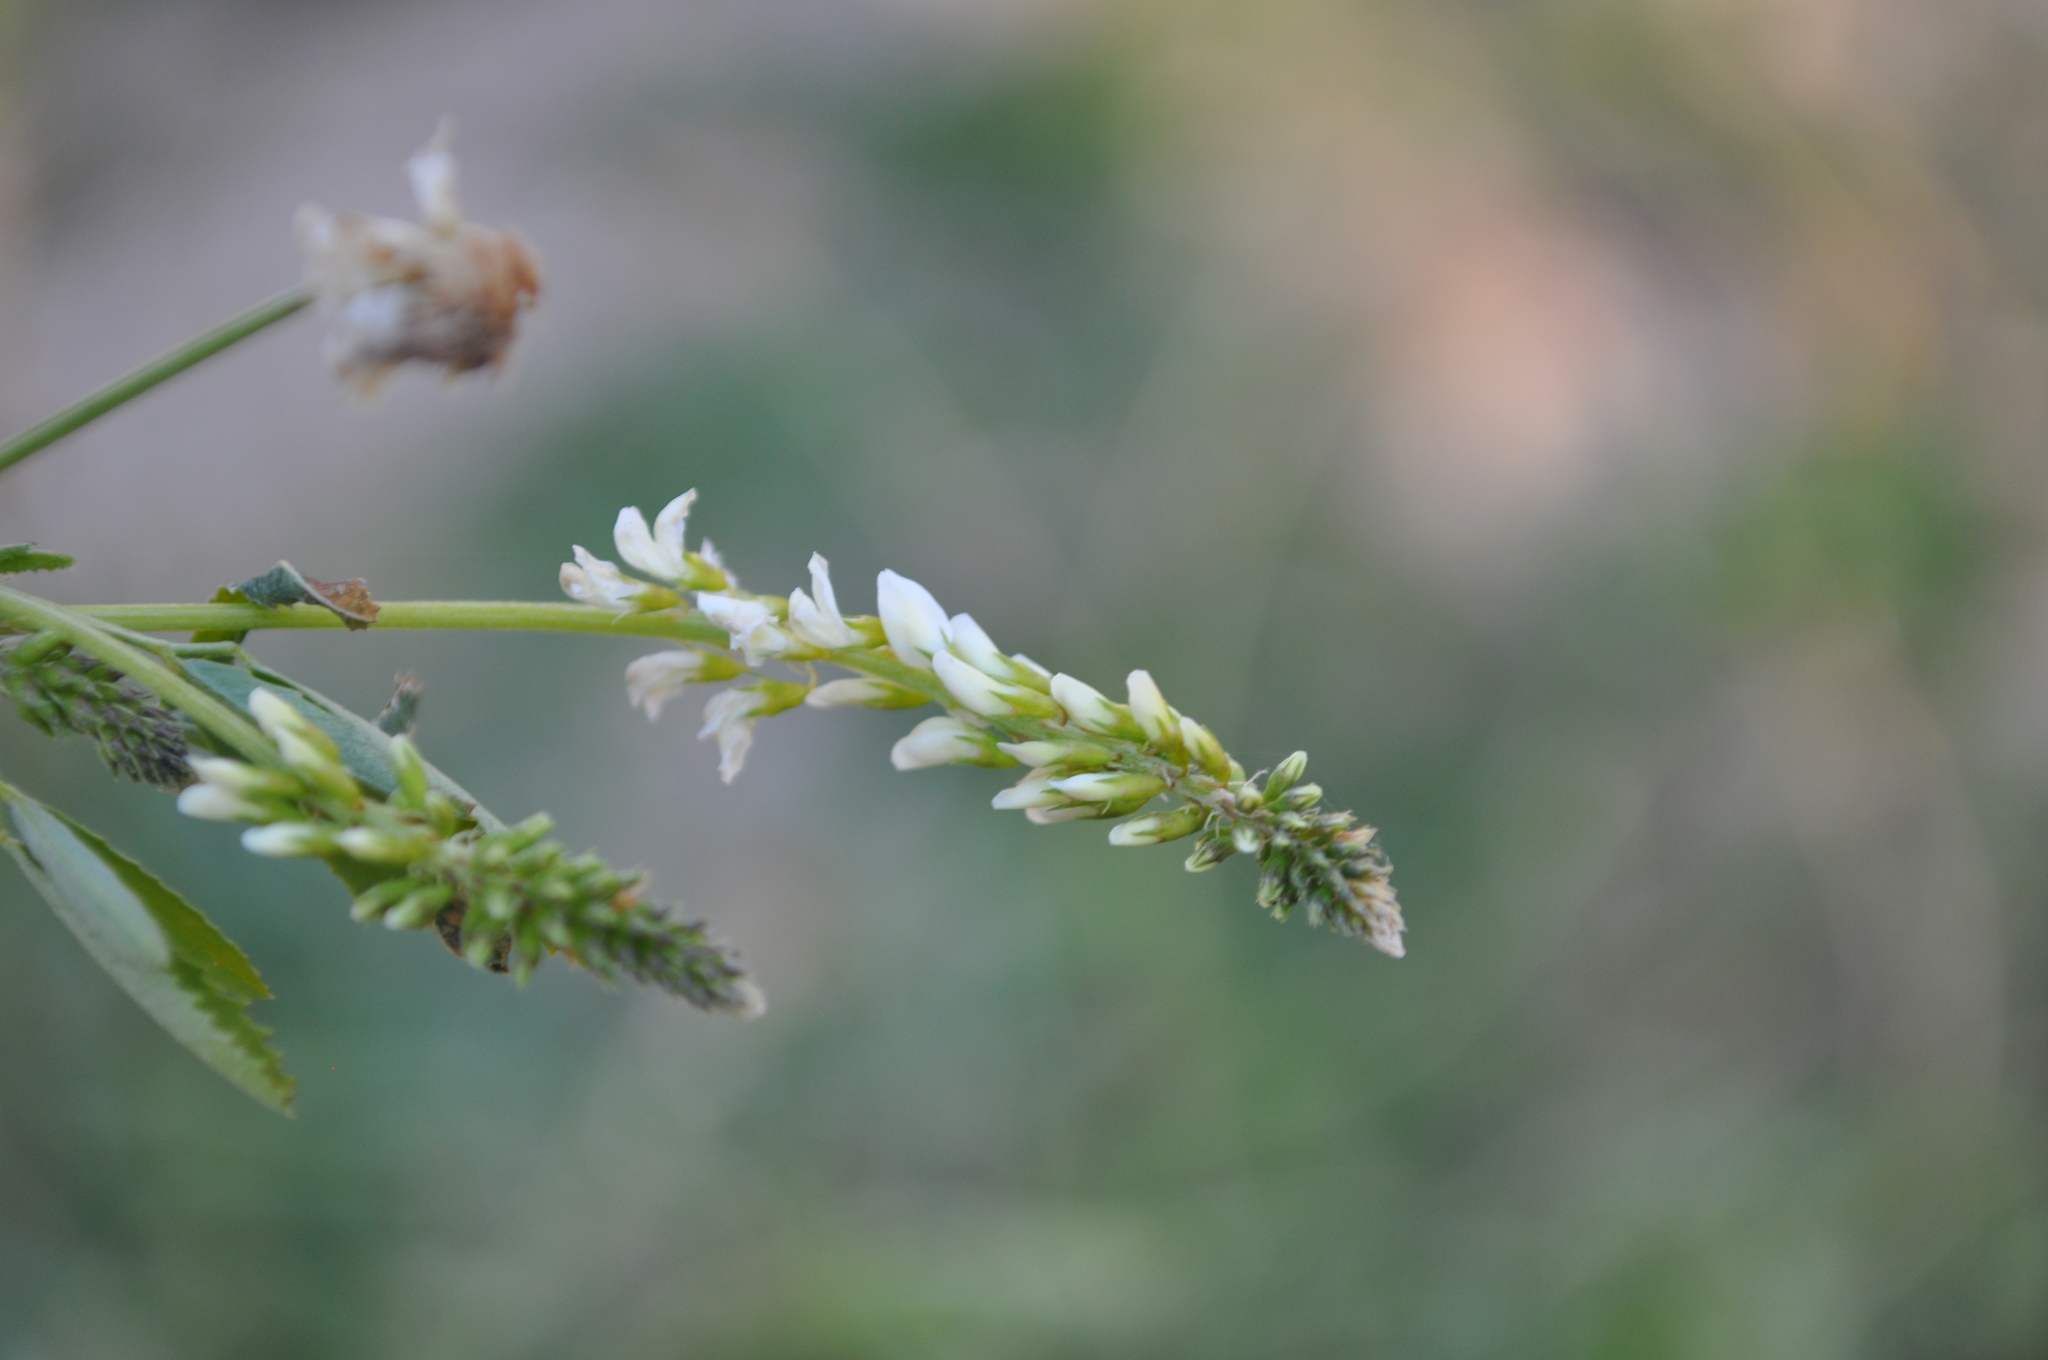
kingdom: Plantae
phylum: Tracheophyta
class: Magnoliopsida
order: Fabales
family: Fabaceae
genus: Melilotus
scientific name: Melilotus albus
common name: White melilot
